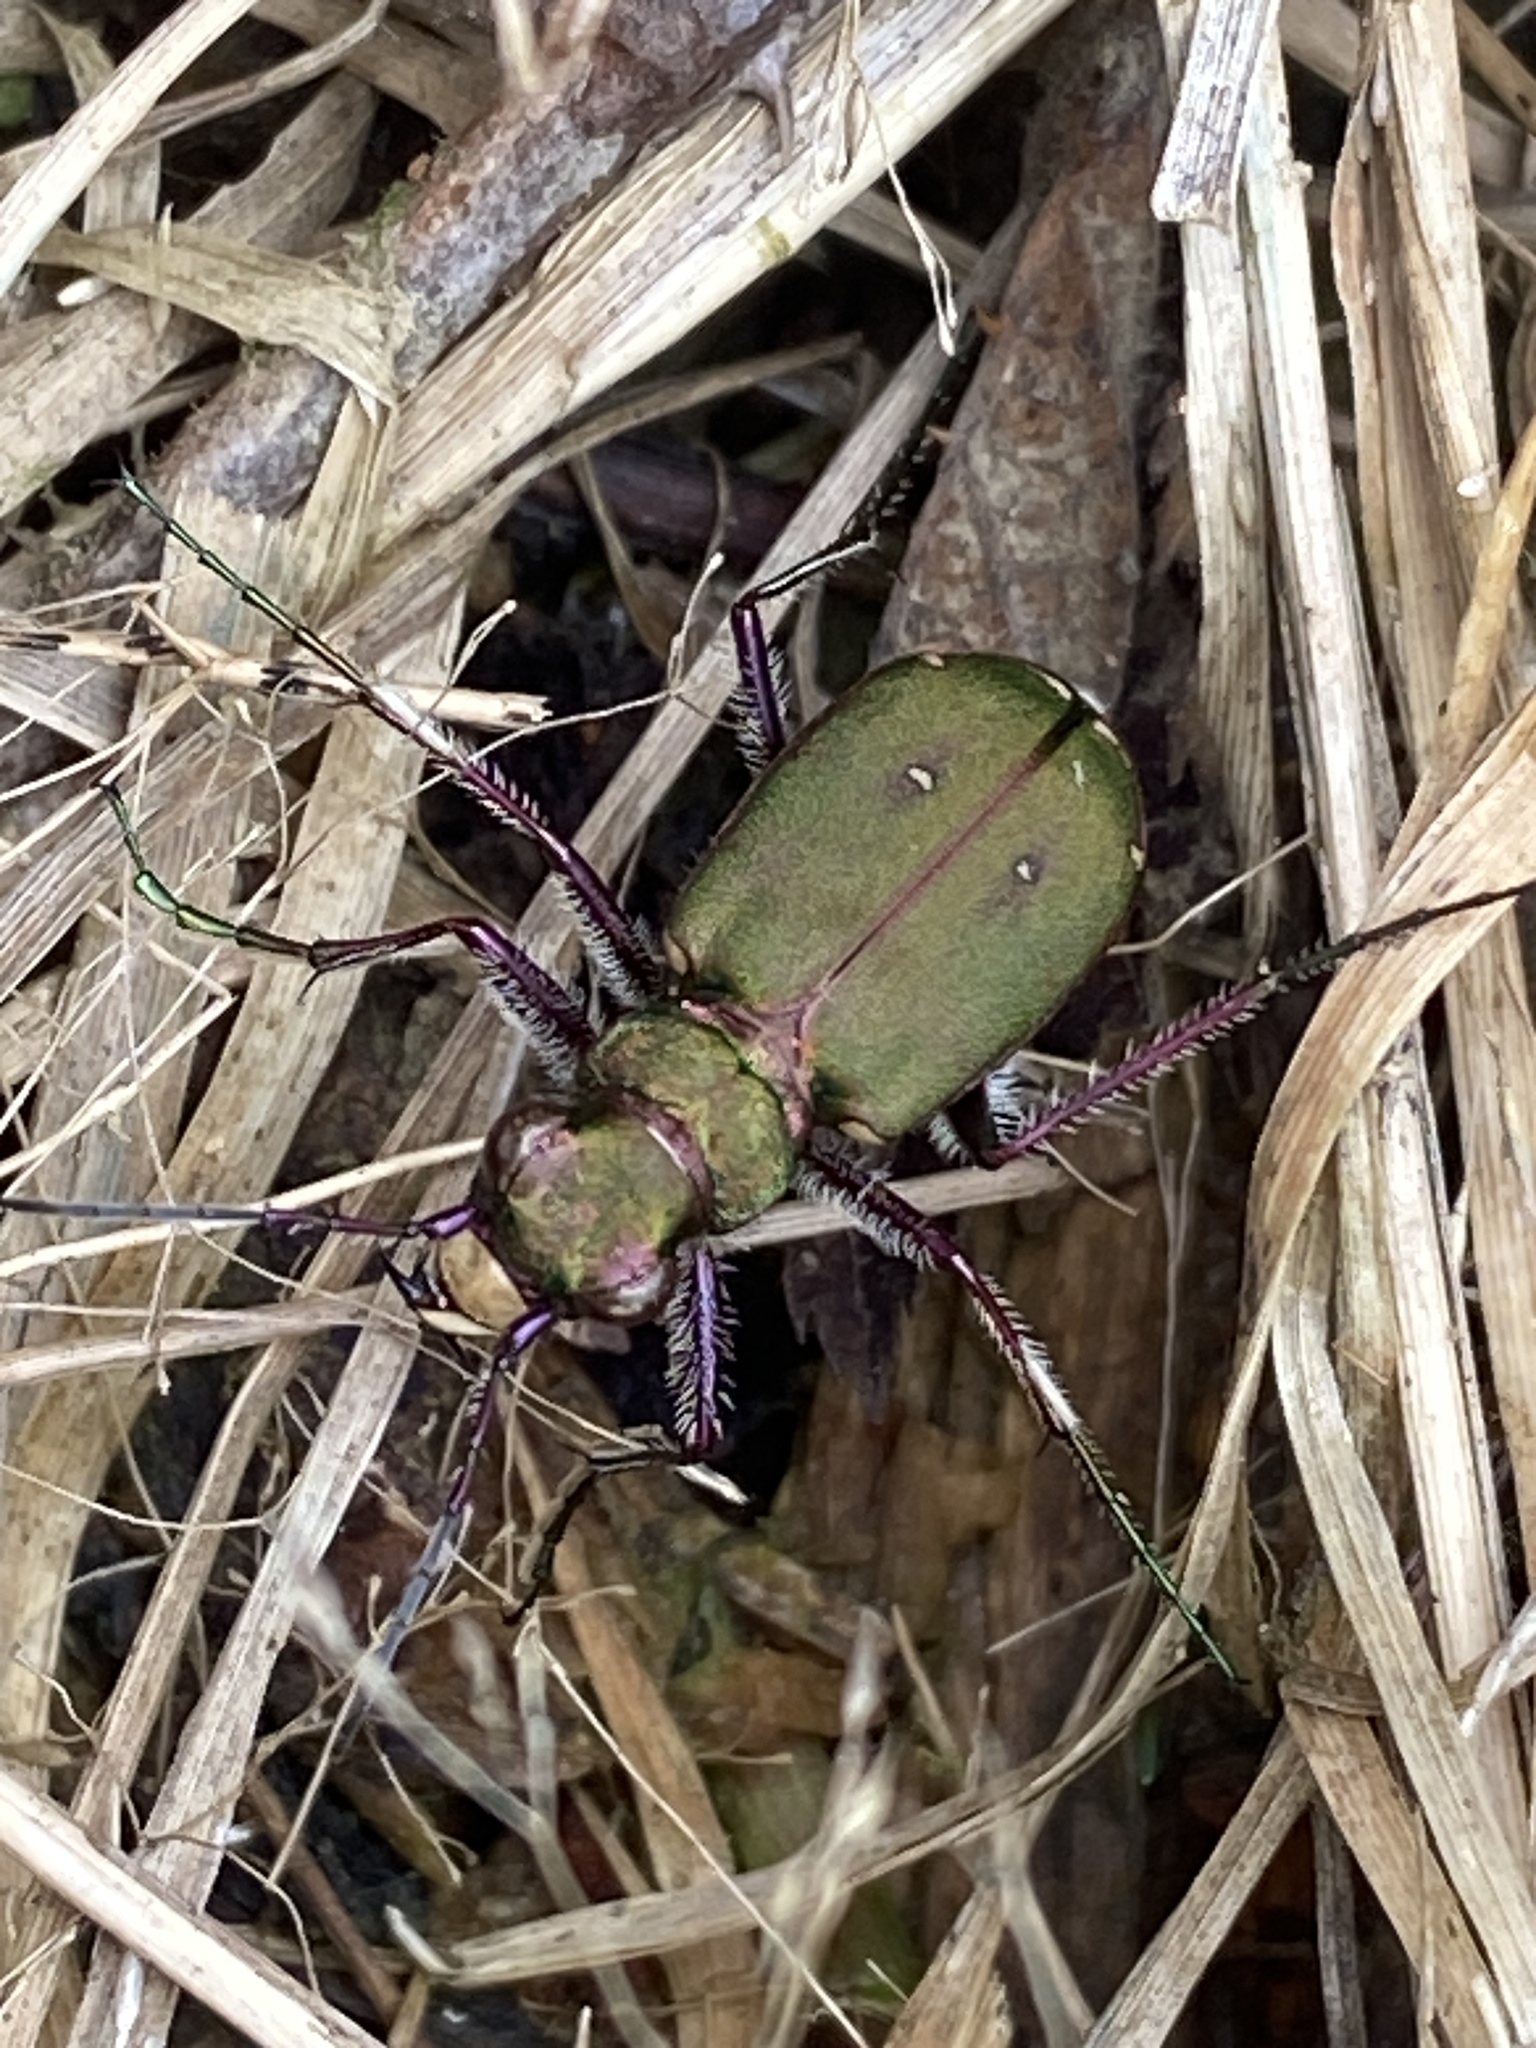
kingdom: Animalia
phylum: Arthropoda
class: Insecta
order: Coleoptera
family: Carabidae
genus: Cicindela
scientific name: Cicindela campestris
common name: Common tiger beetle
